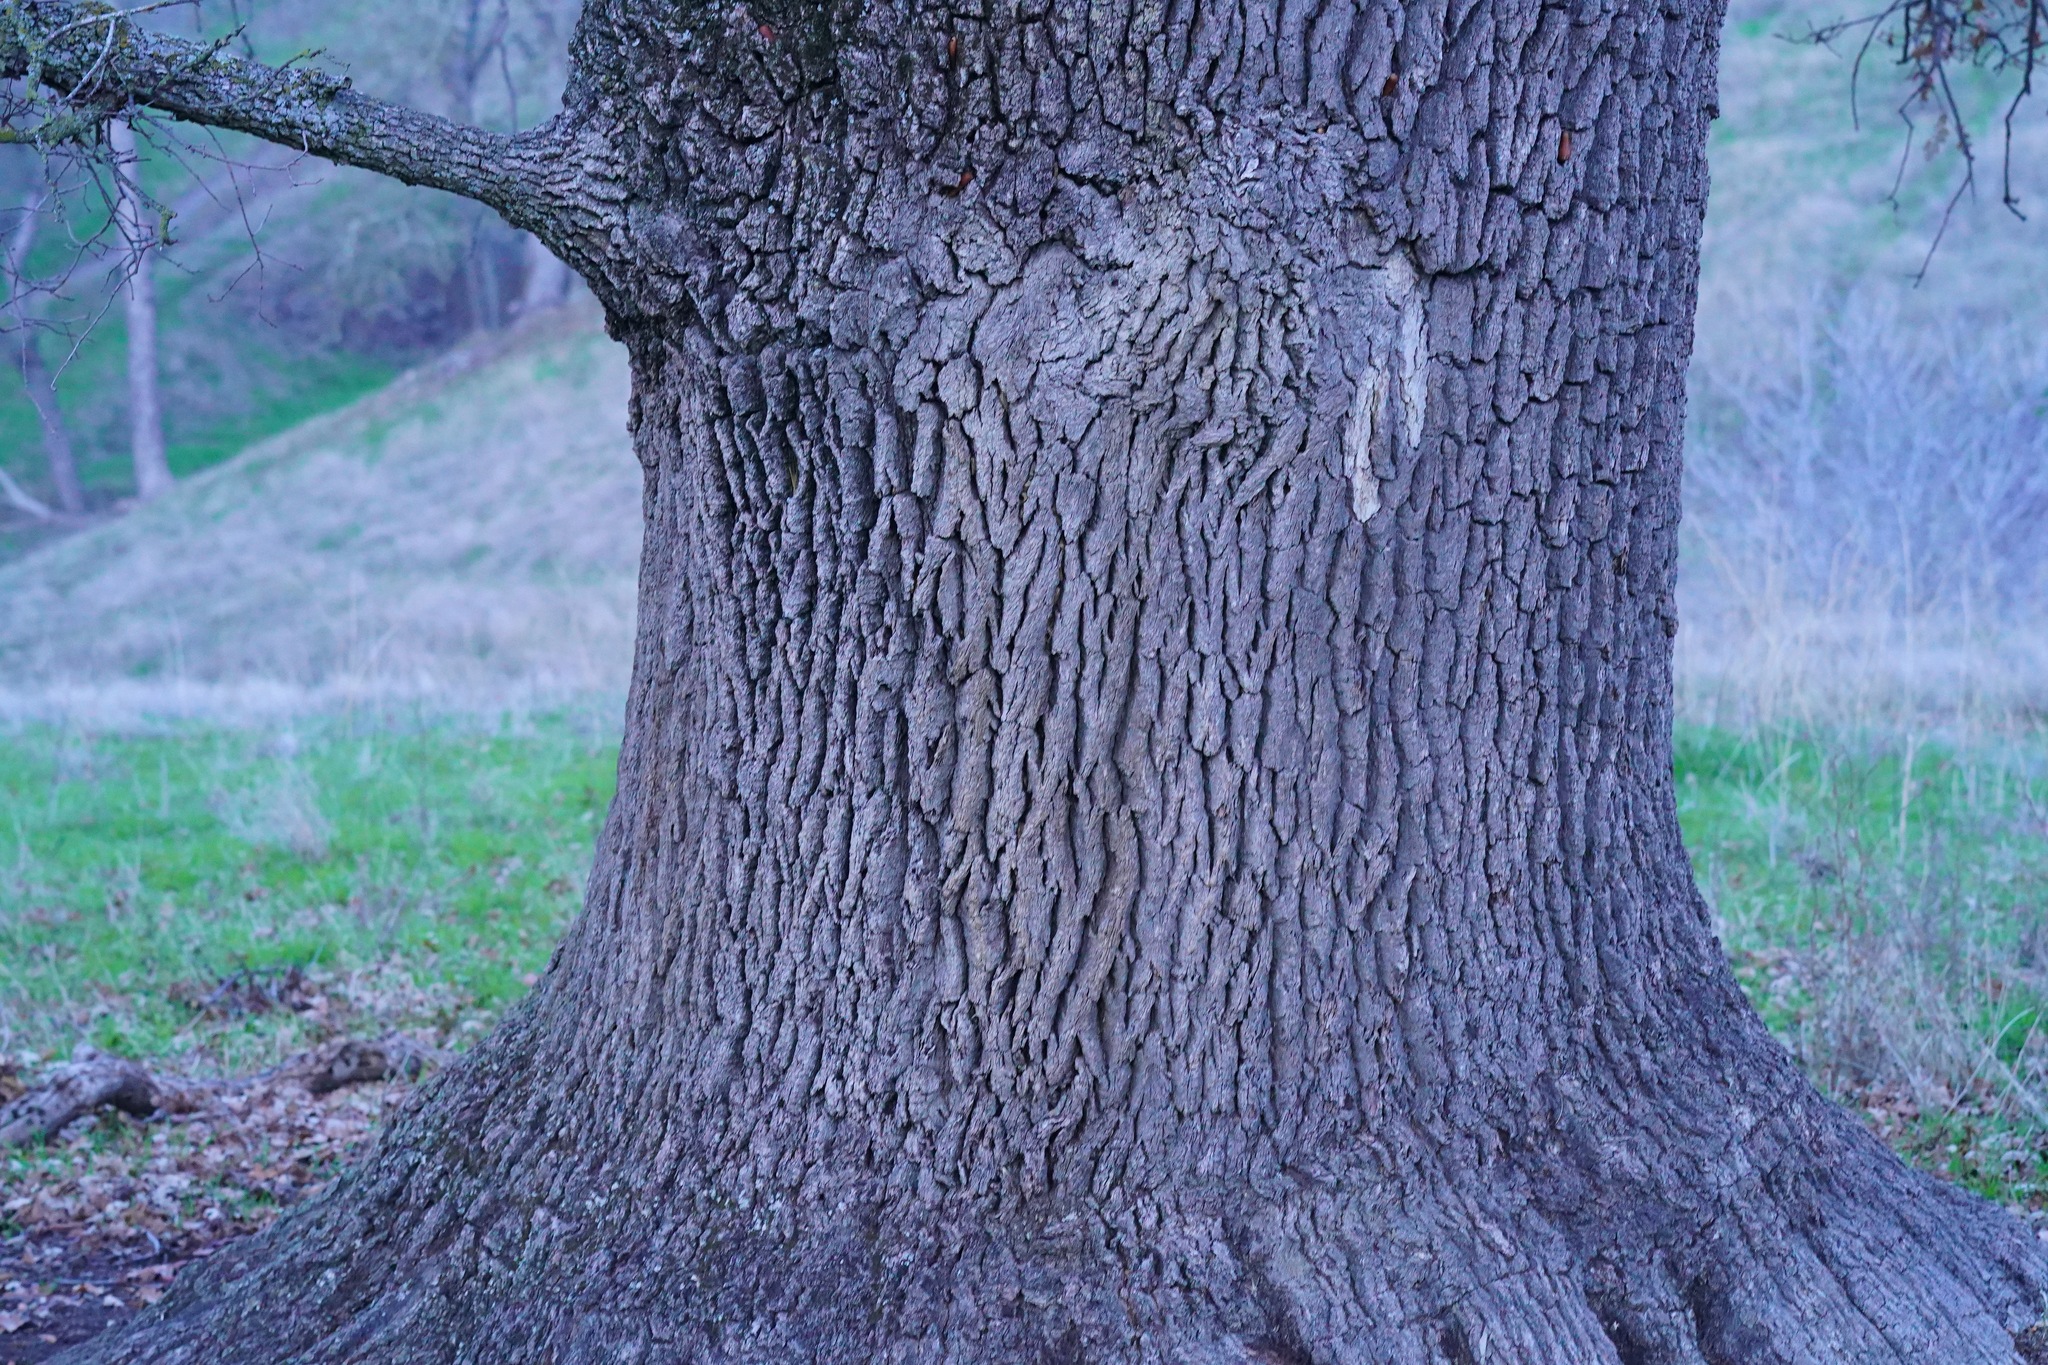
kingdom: Plantae
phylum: Tracheophyta
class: Magnoliopsida
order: Fagales
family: Fagaceae
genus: Quercus
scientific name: Quercus lobata
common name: Valley oak
